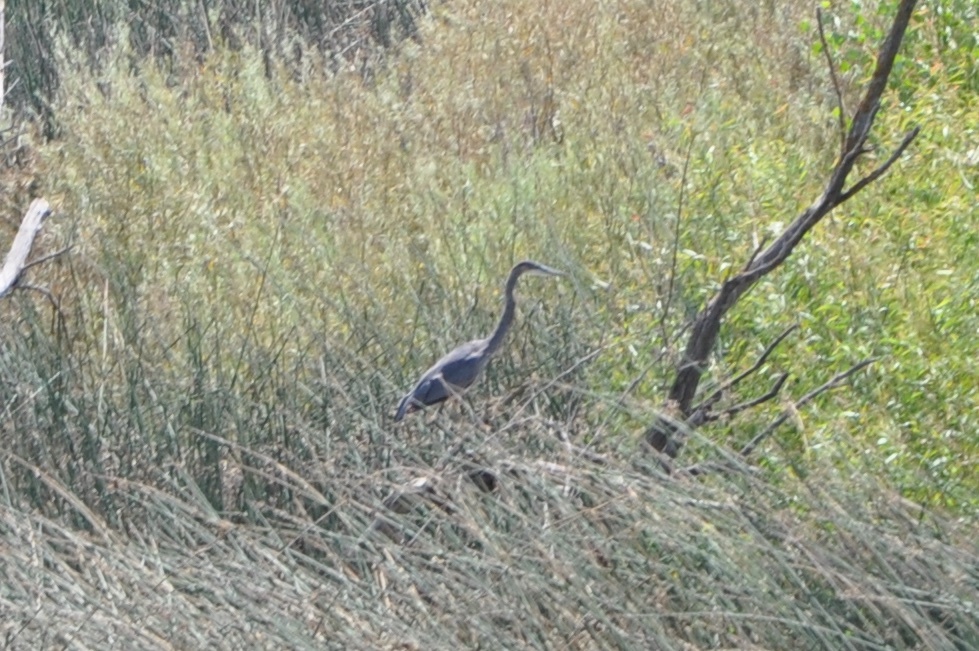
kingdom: Animalia
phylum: Chordata
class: Aves
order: Pelecaniformes
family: Ardeidae
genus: Ardea
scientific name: Ardea herodias
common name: Great blue heron
